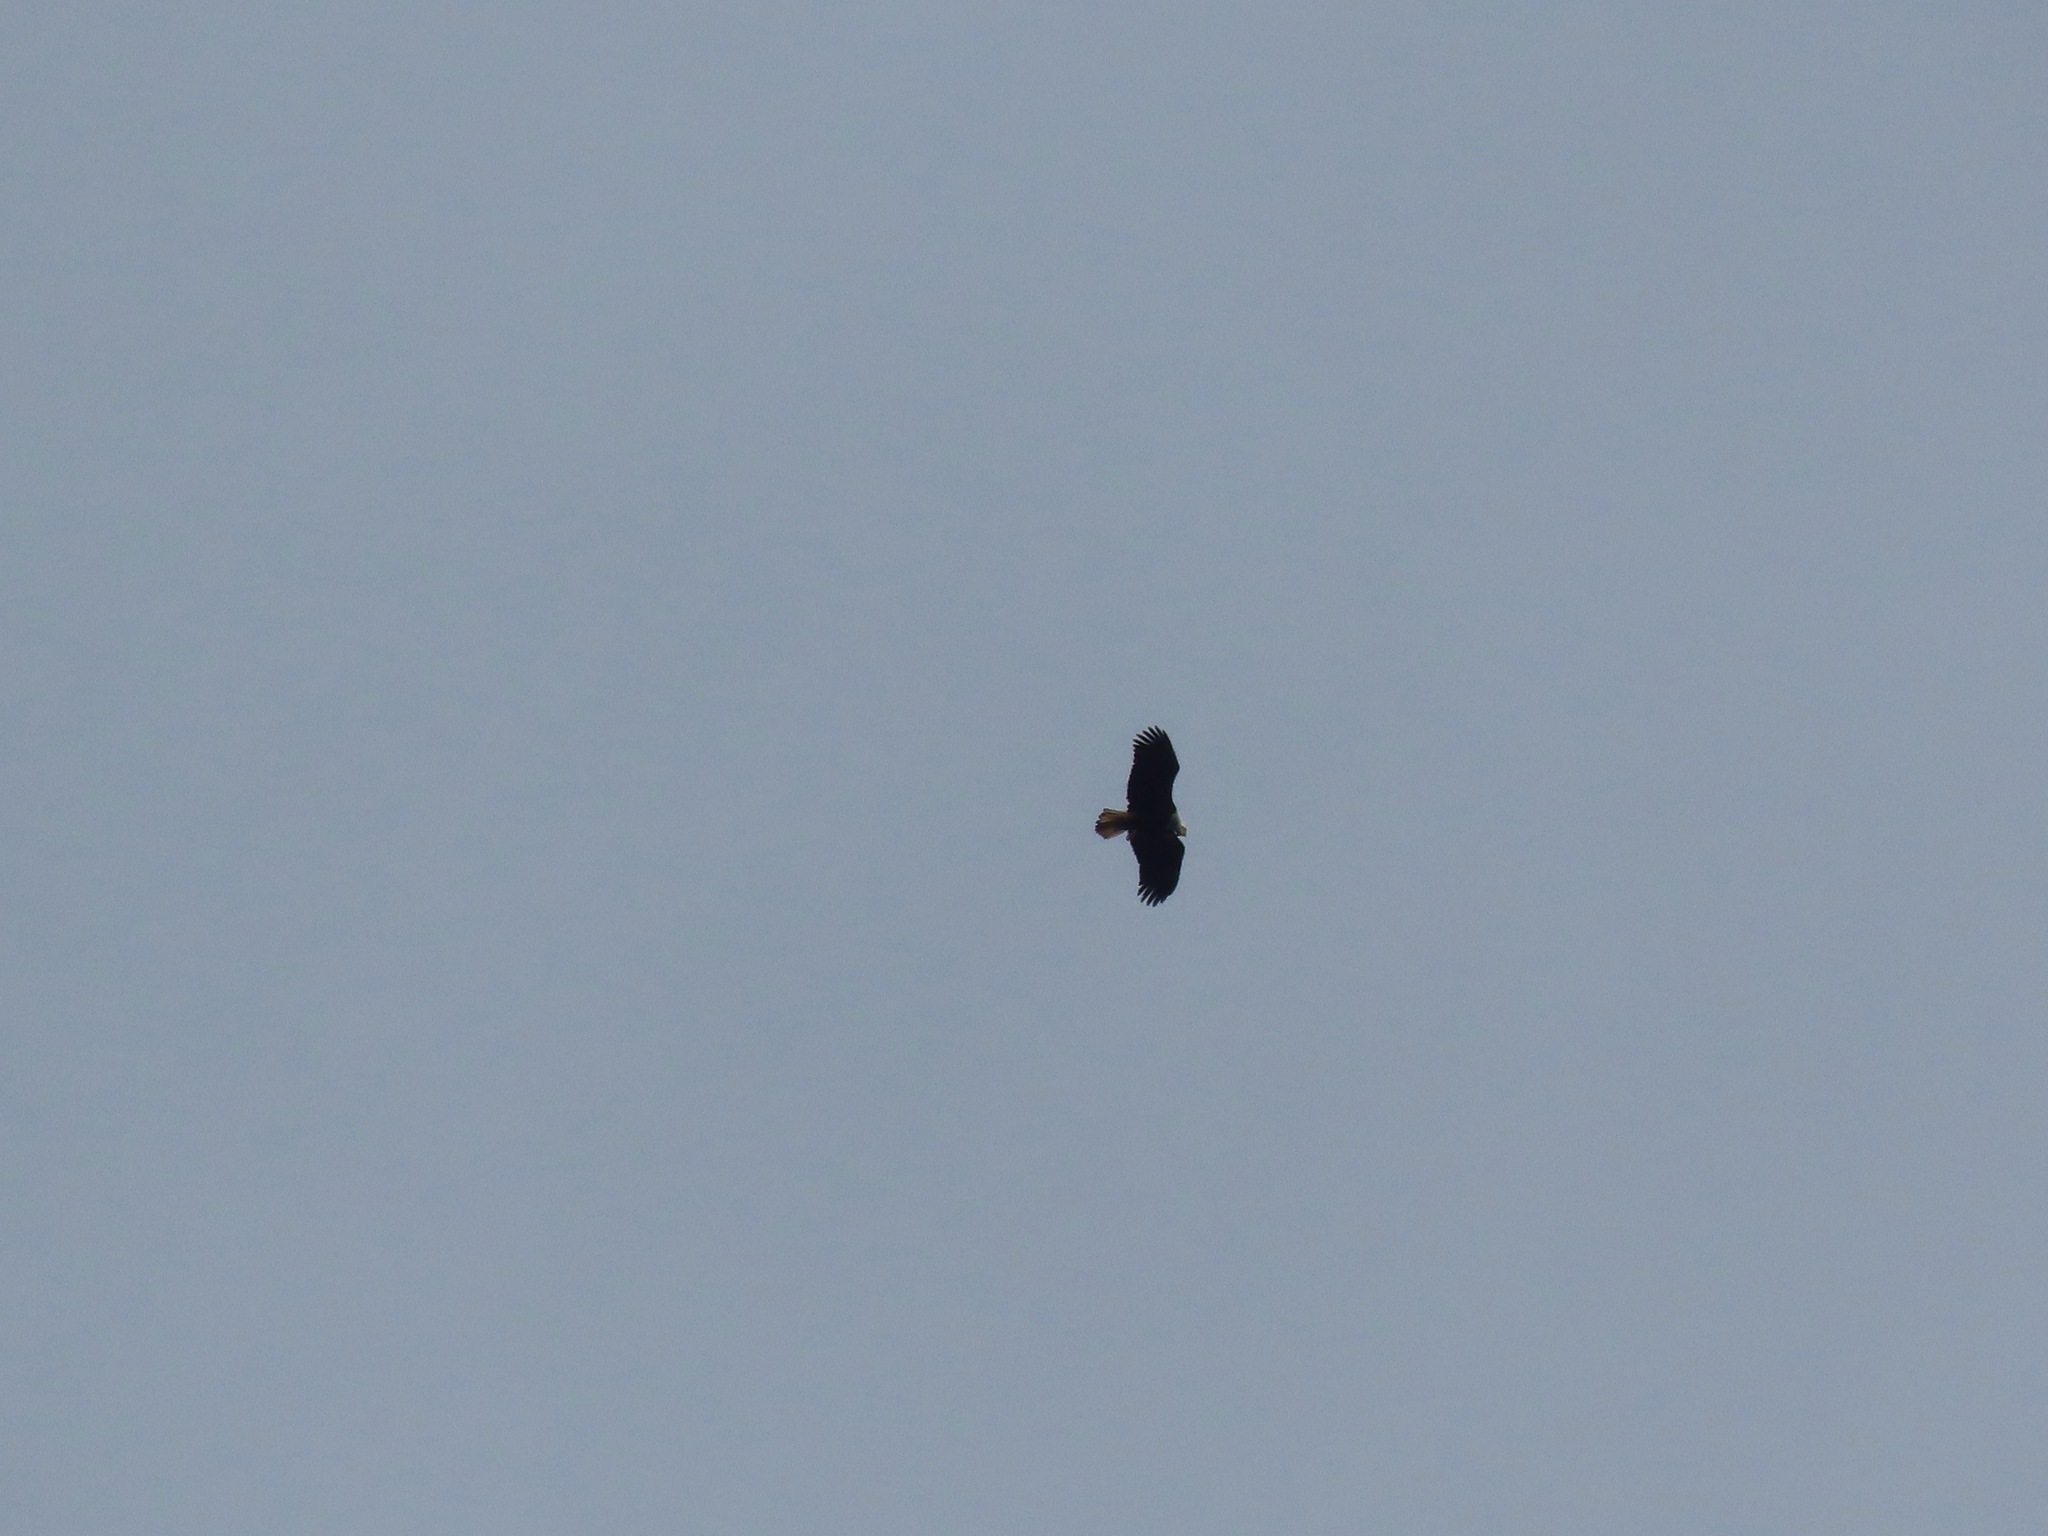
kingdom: Animalia
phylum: Chordata
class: Aves
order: Accipitriformes
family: Accipitridae
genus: Haliaeetus
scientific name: Haliaeetus leucocephalus
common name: Bald eagle
